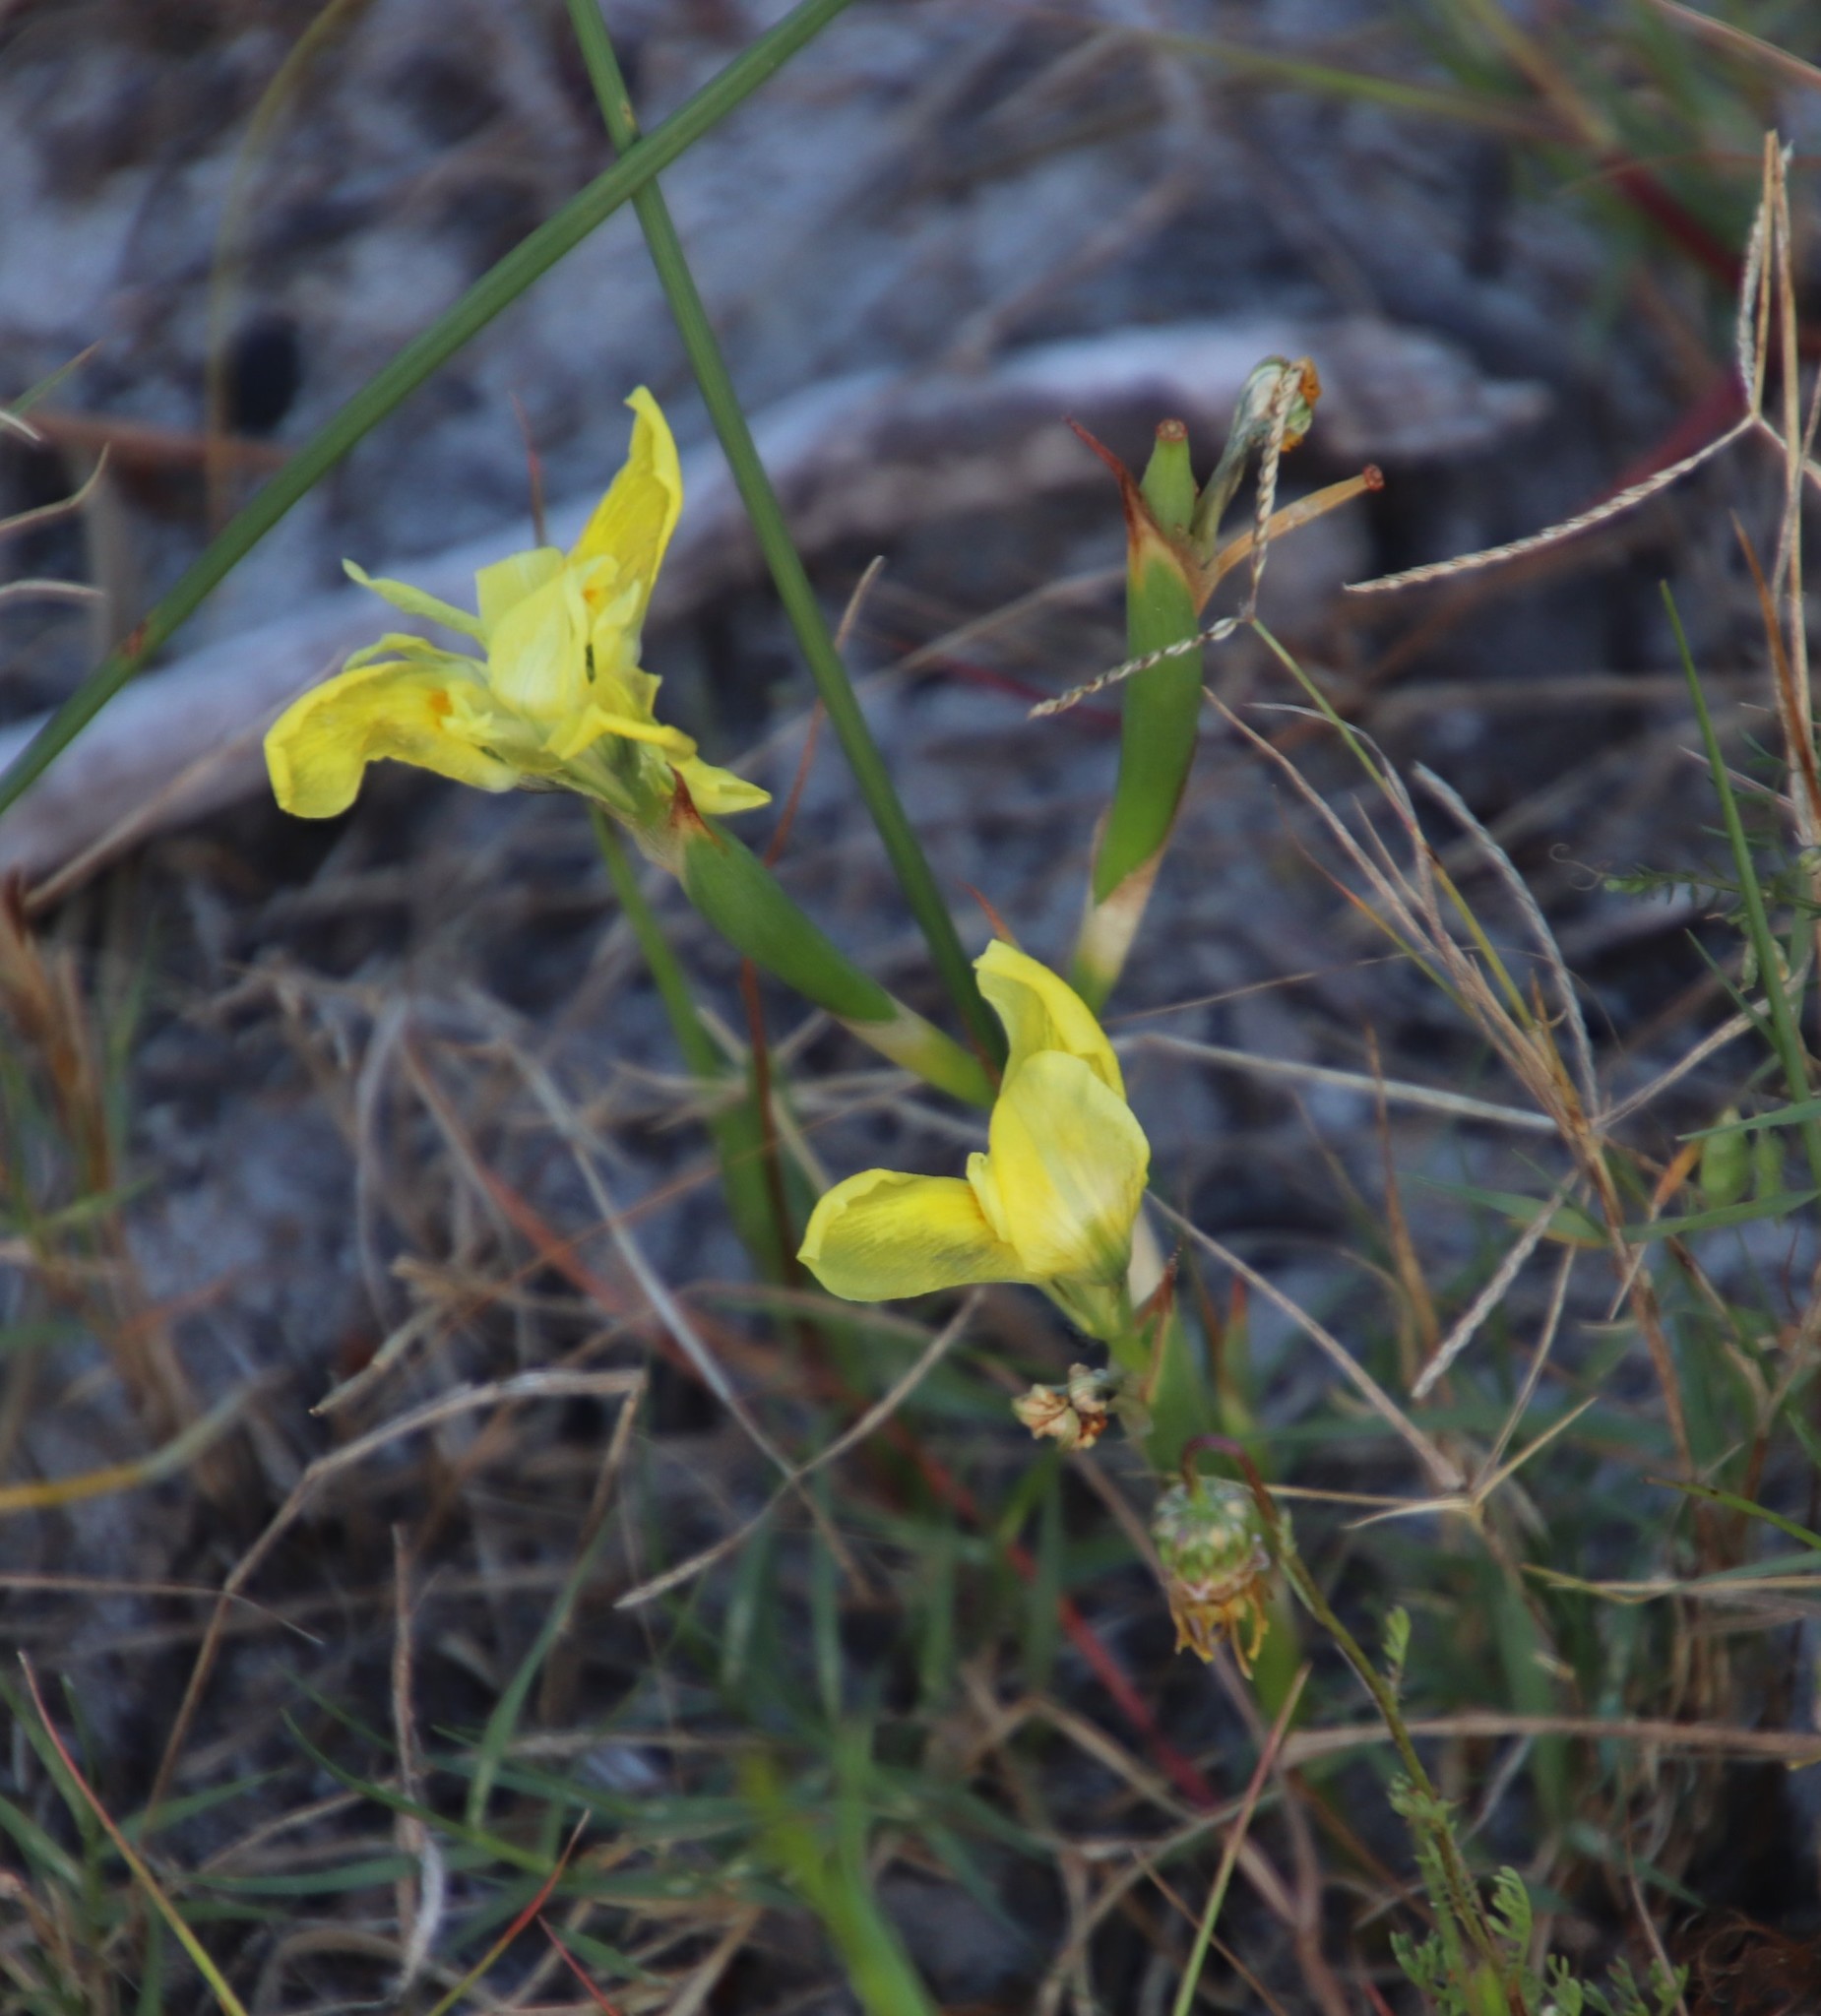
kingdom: Plantae
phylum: Tracheophyta
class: Liliopsida
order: Asparagales
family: Iridaceae
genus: Moraea
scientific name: Moraea fugax
